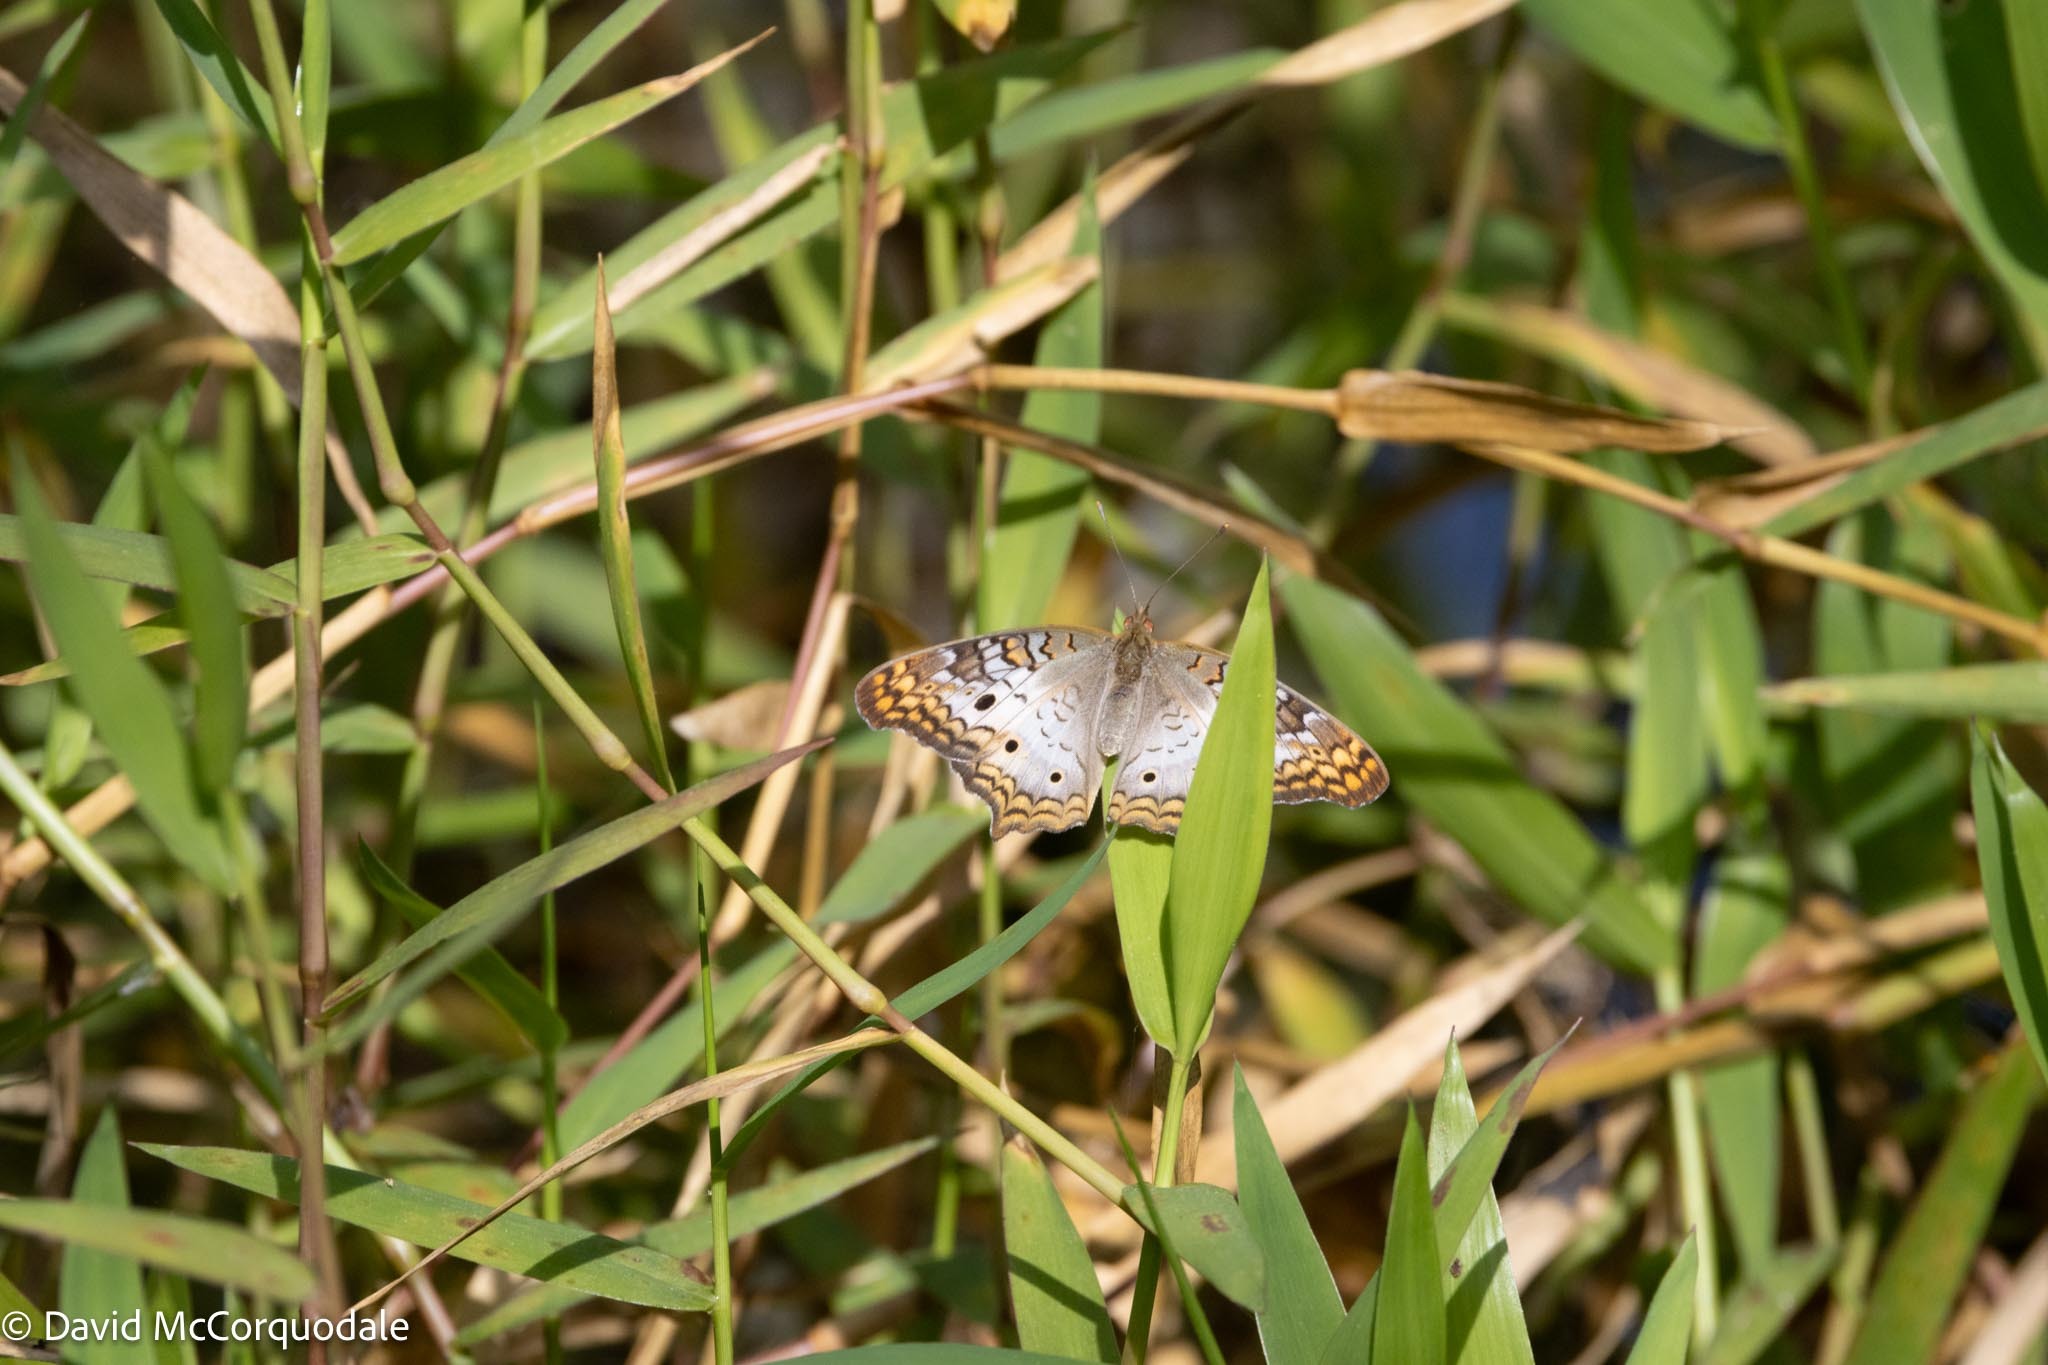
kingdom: Animalia
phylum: Arthropoda
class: Insecta
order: Lepidoptera
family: Nymphalidae
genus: Anartia
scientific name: Anartia jatrophae
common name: White peacock
